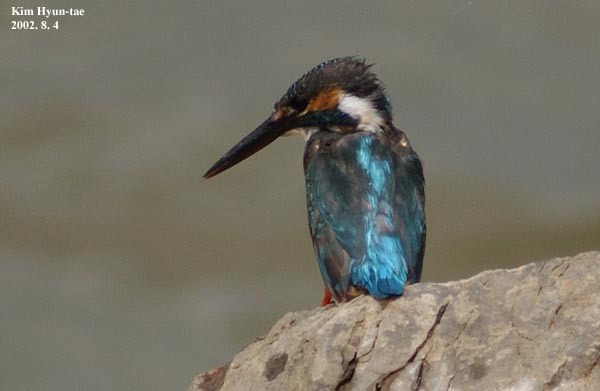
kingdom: Animalia
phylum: Chordata
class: Aves
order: Coraciiformes
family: Alcedinidae
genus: Alcedo
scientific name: Alcedo atthis
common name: Common kingfisher
